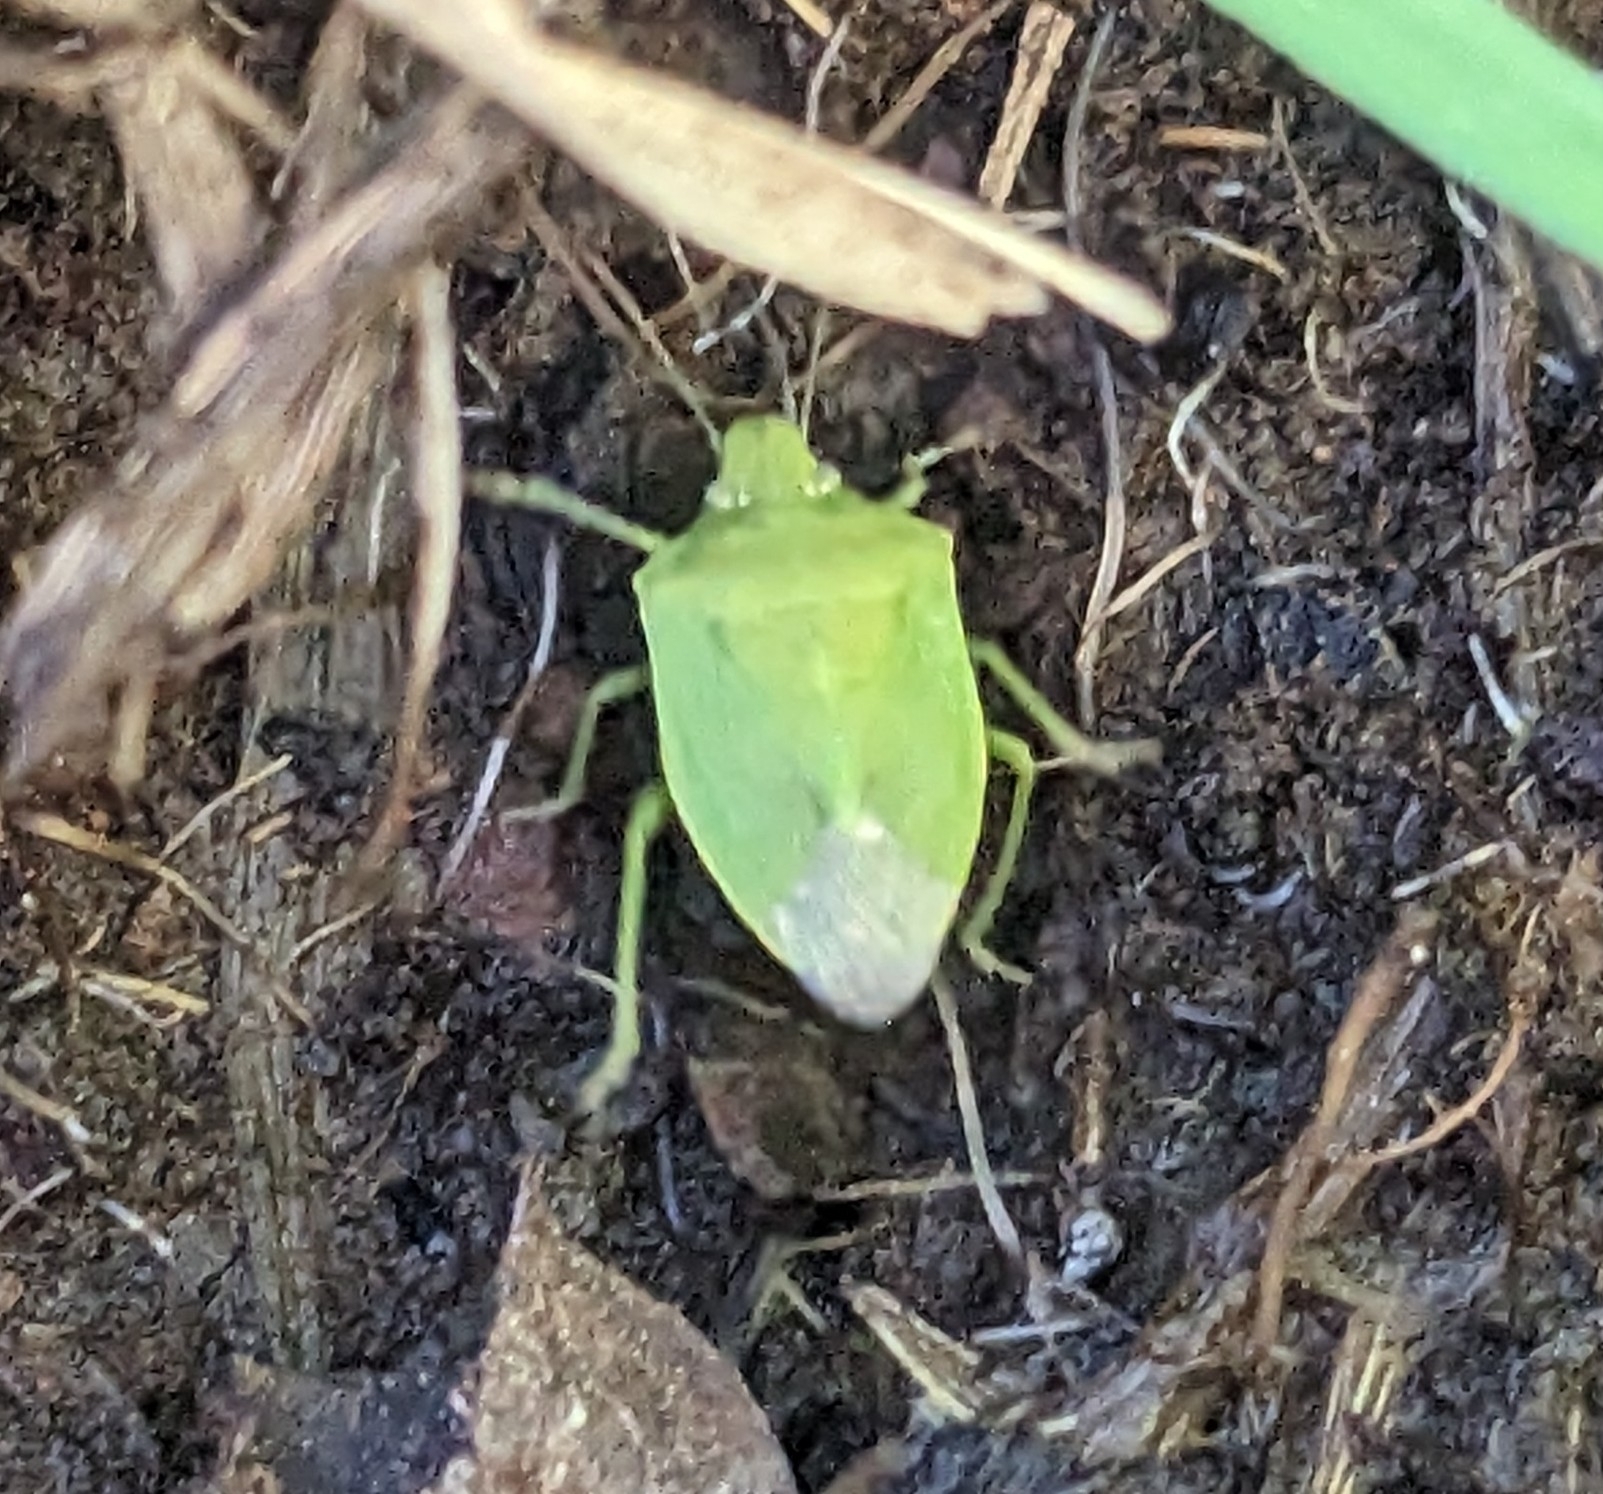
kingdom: Animalia
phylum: Arthropoda
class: Insecta
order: Hemiptera
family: Pentatomidae
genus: Thyanta
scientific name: Thyanta accerra
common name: Stink bug
